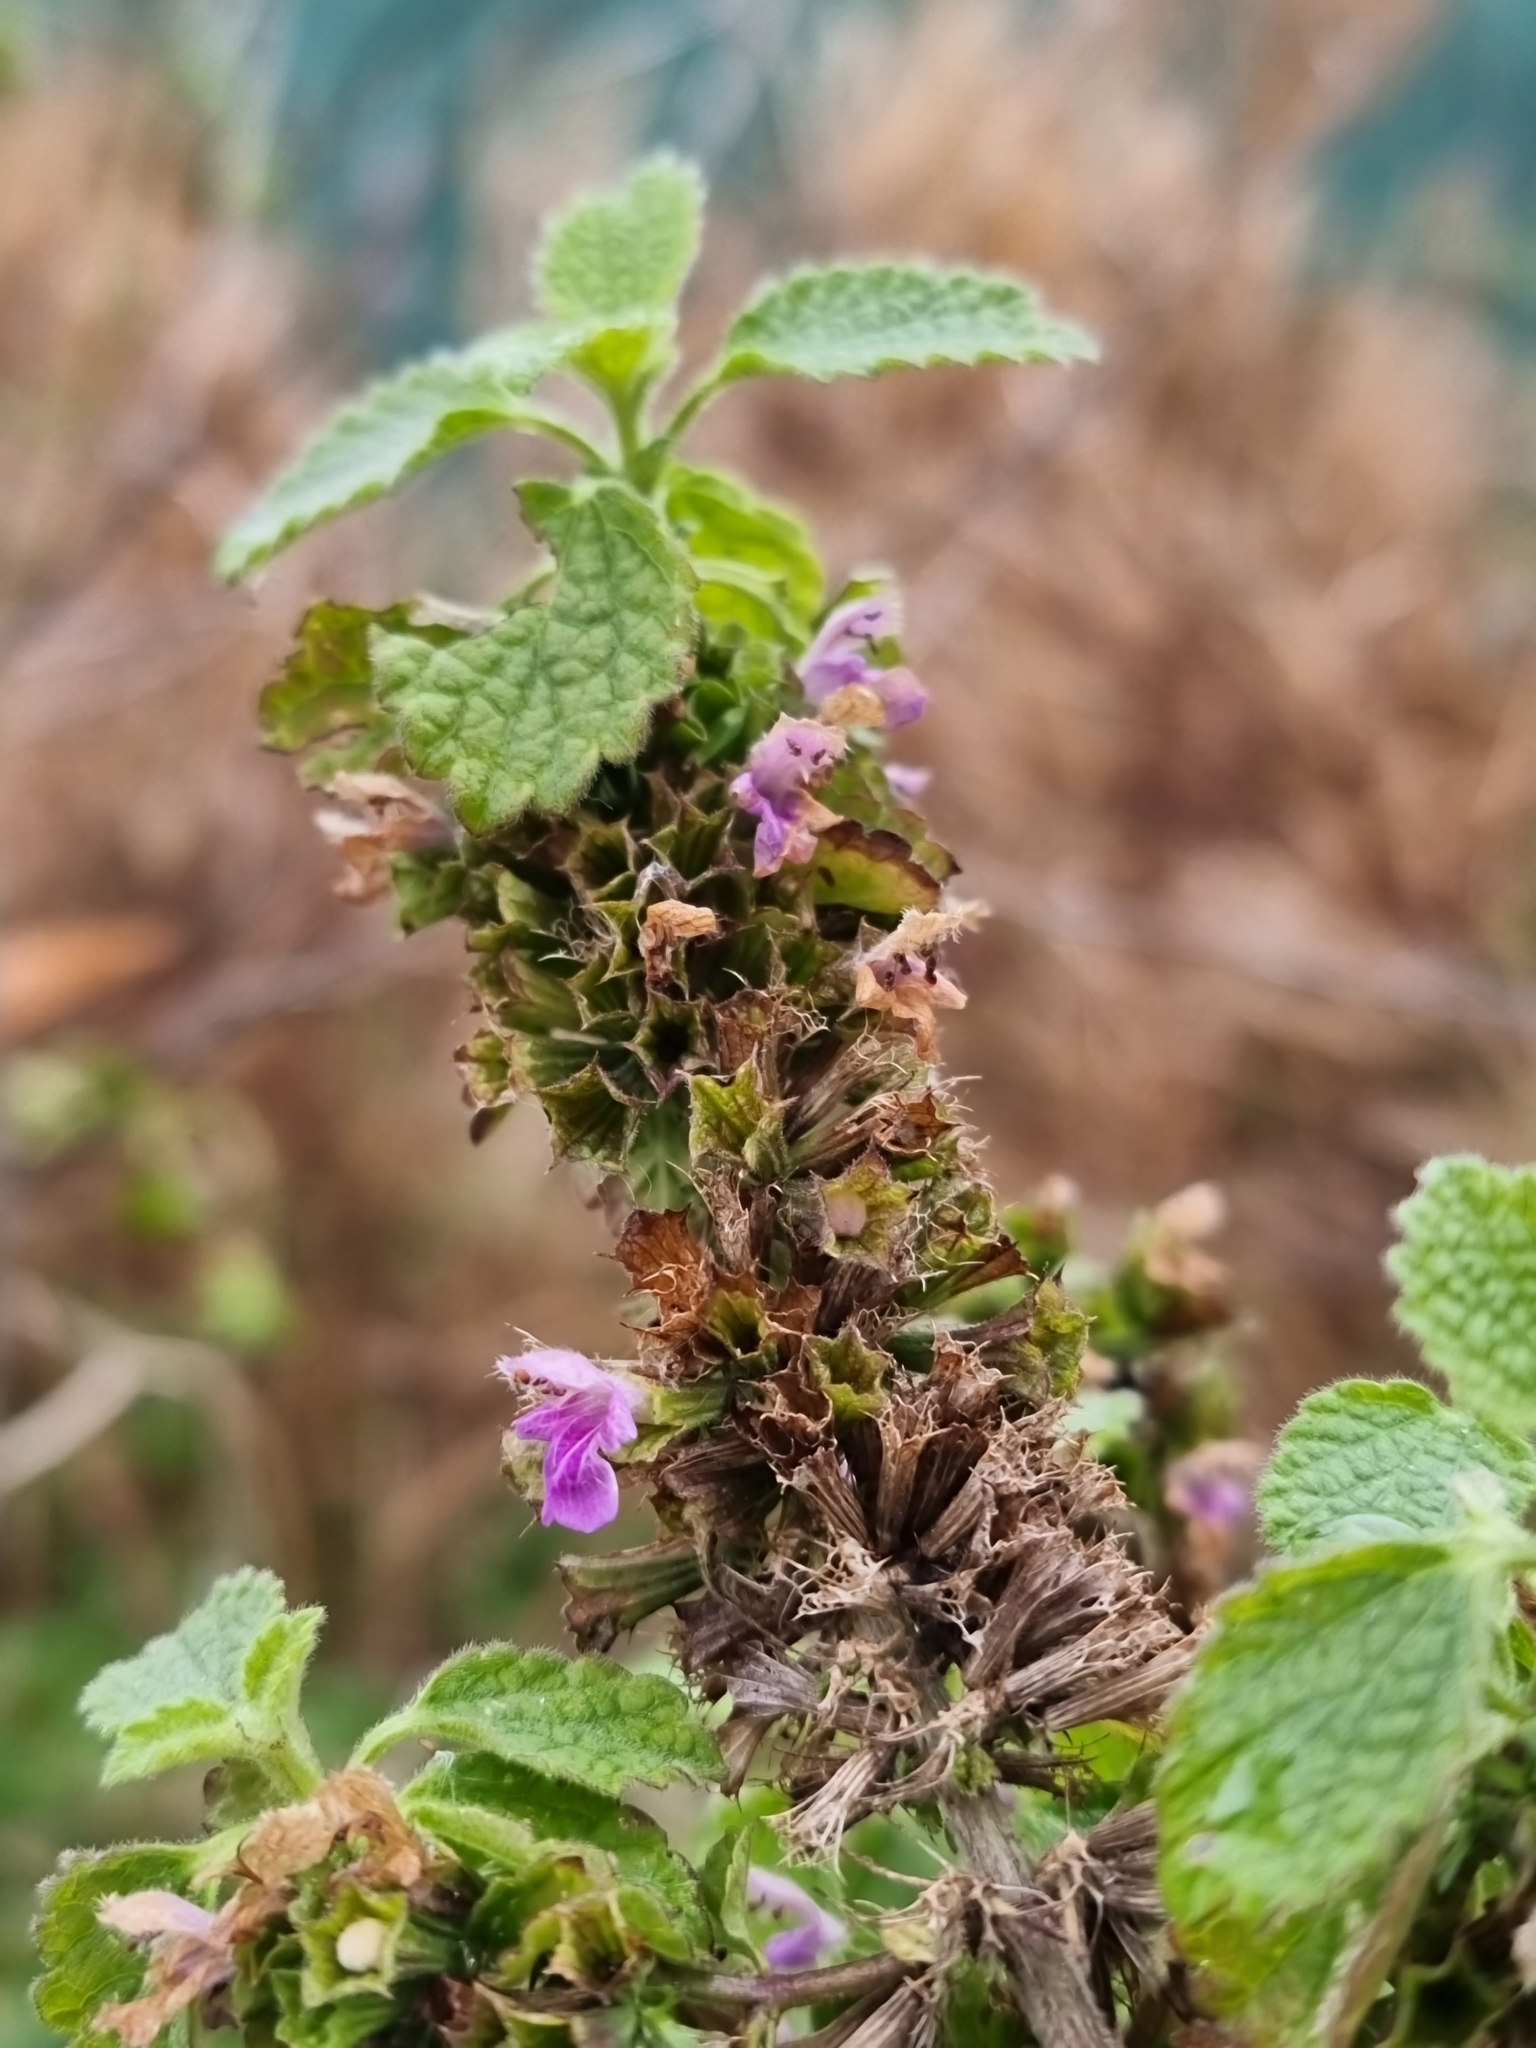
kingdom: Plantae
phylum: Tracheophyta
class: Magnoliopsida
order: Lamiales
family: Lamiaceae
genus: Ballota
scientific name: Ballota nigra
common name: Black horehound
